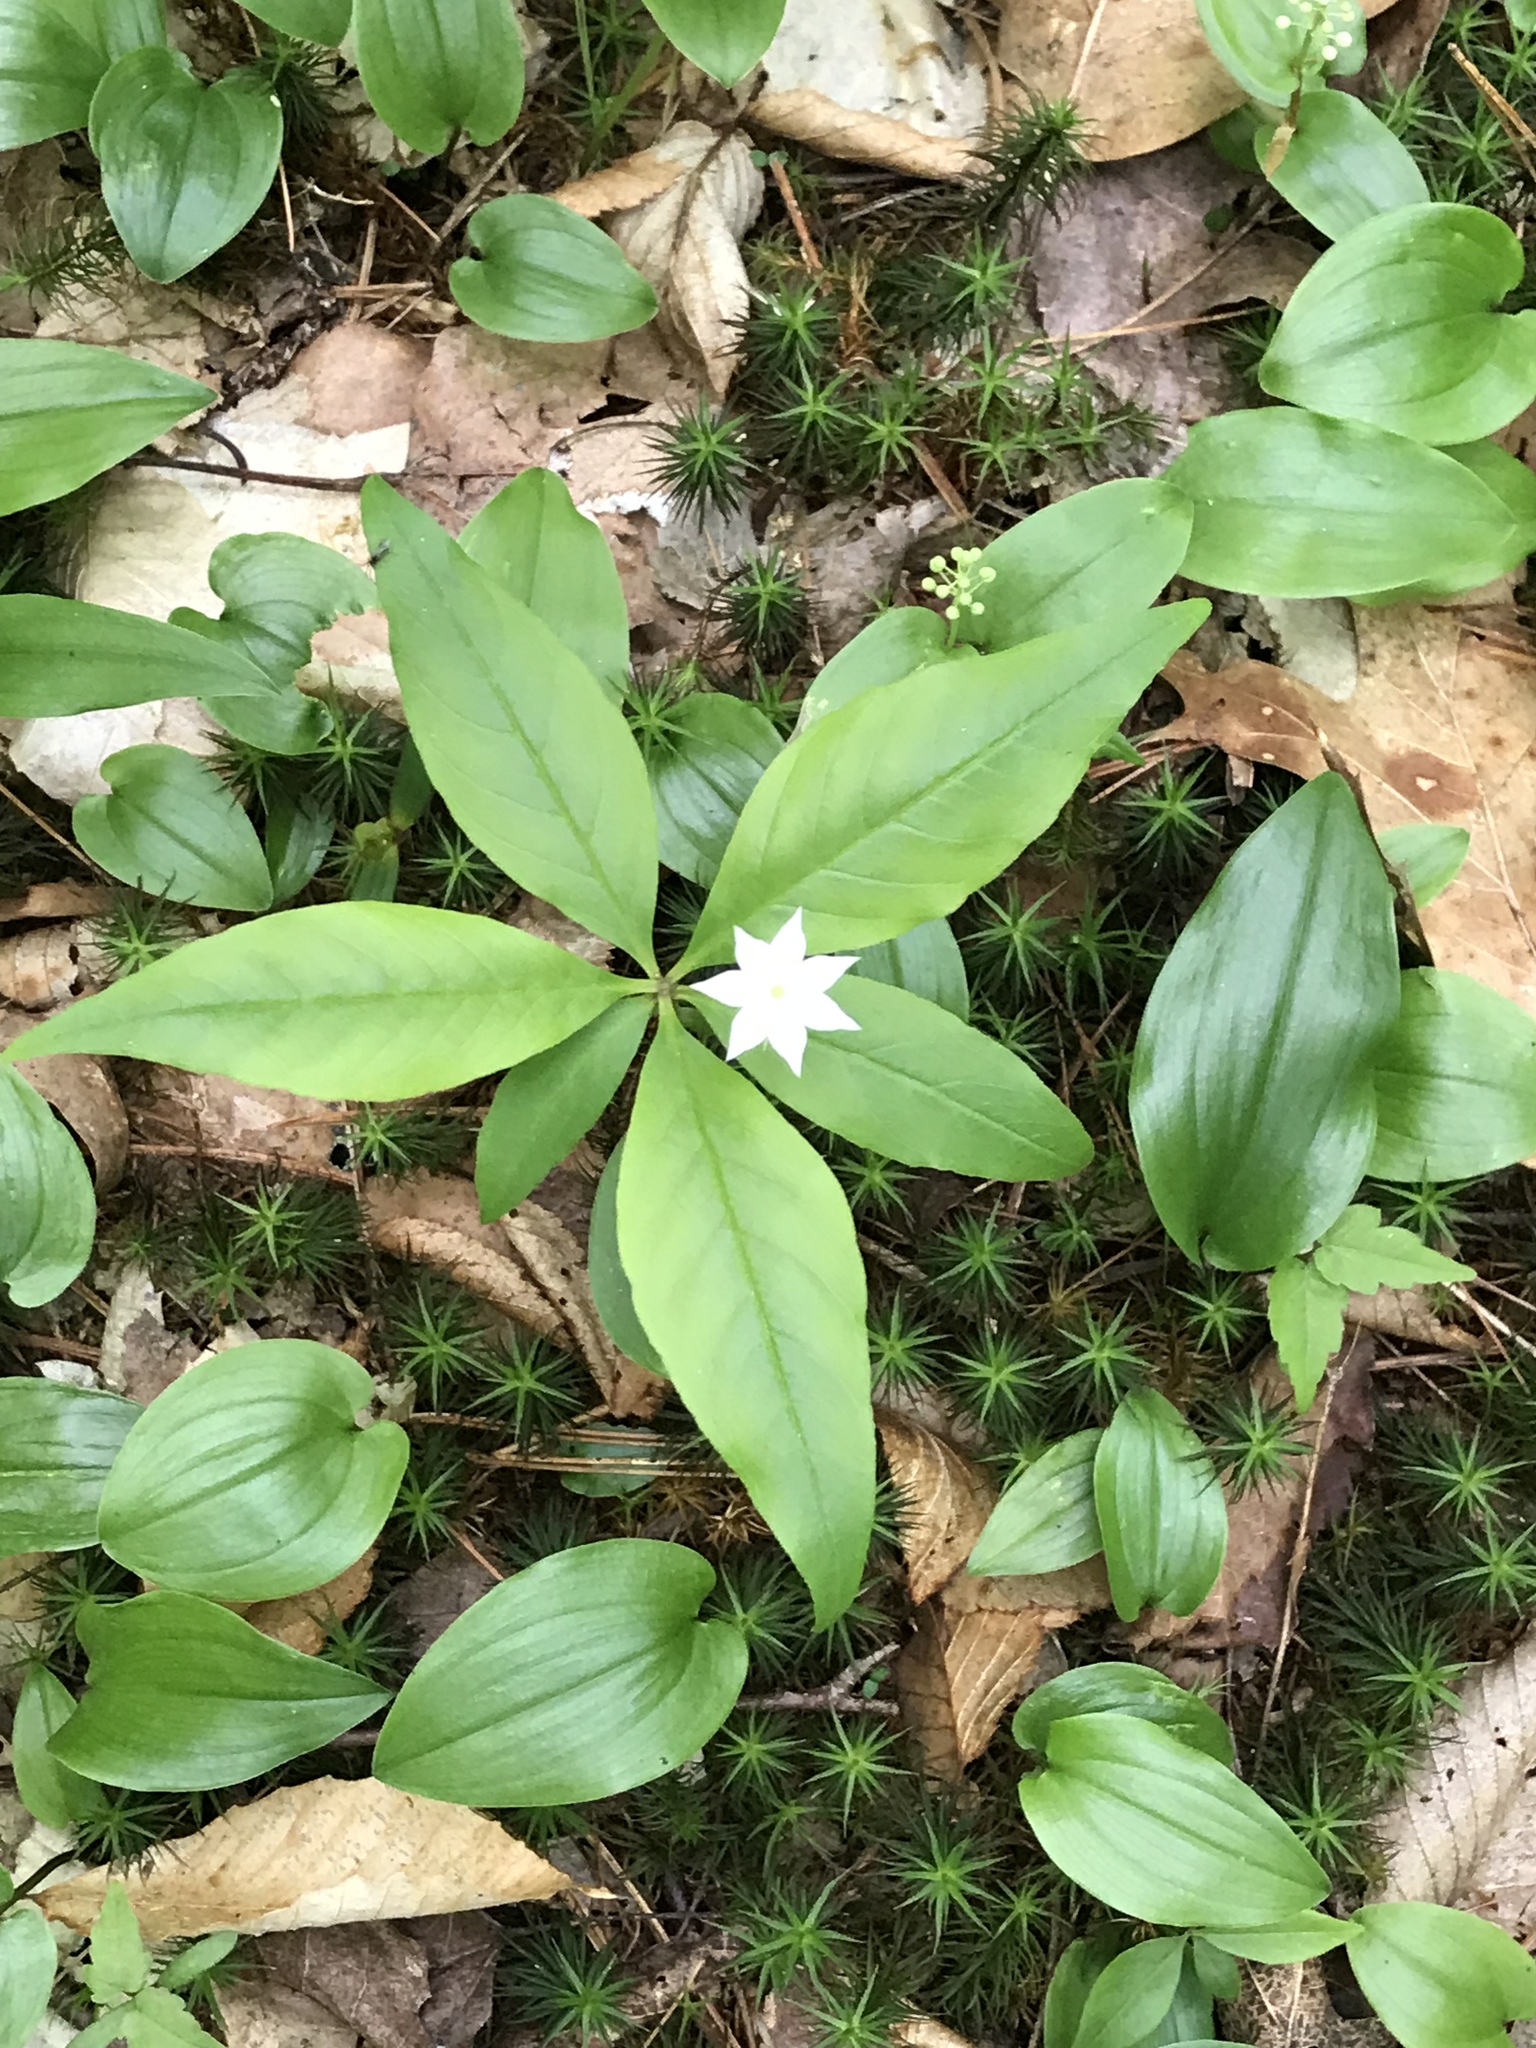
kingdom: Plantae
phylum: Tracheophyta
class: Magnoliopsida
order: Ericales
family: Primulaceae
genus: Lysimachia
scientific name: Lysimachia borealis
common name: American starflower
